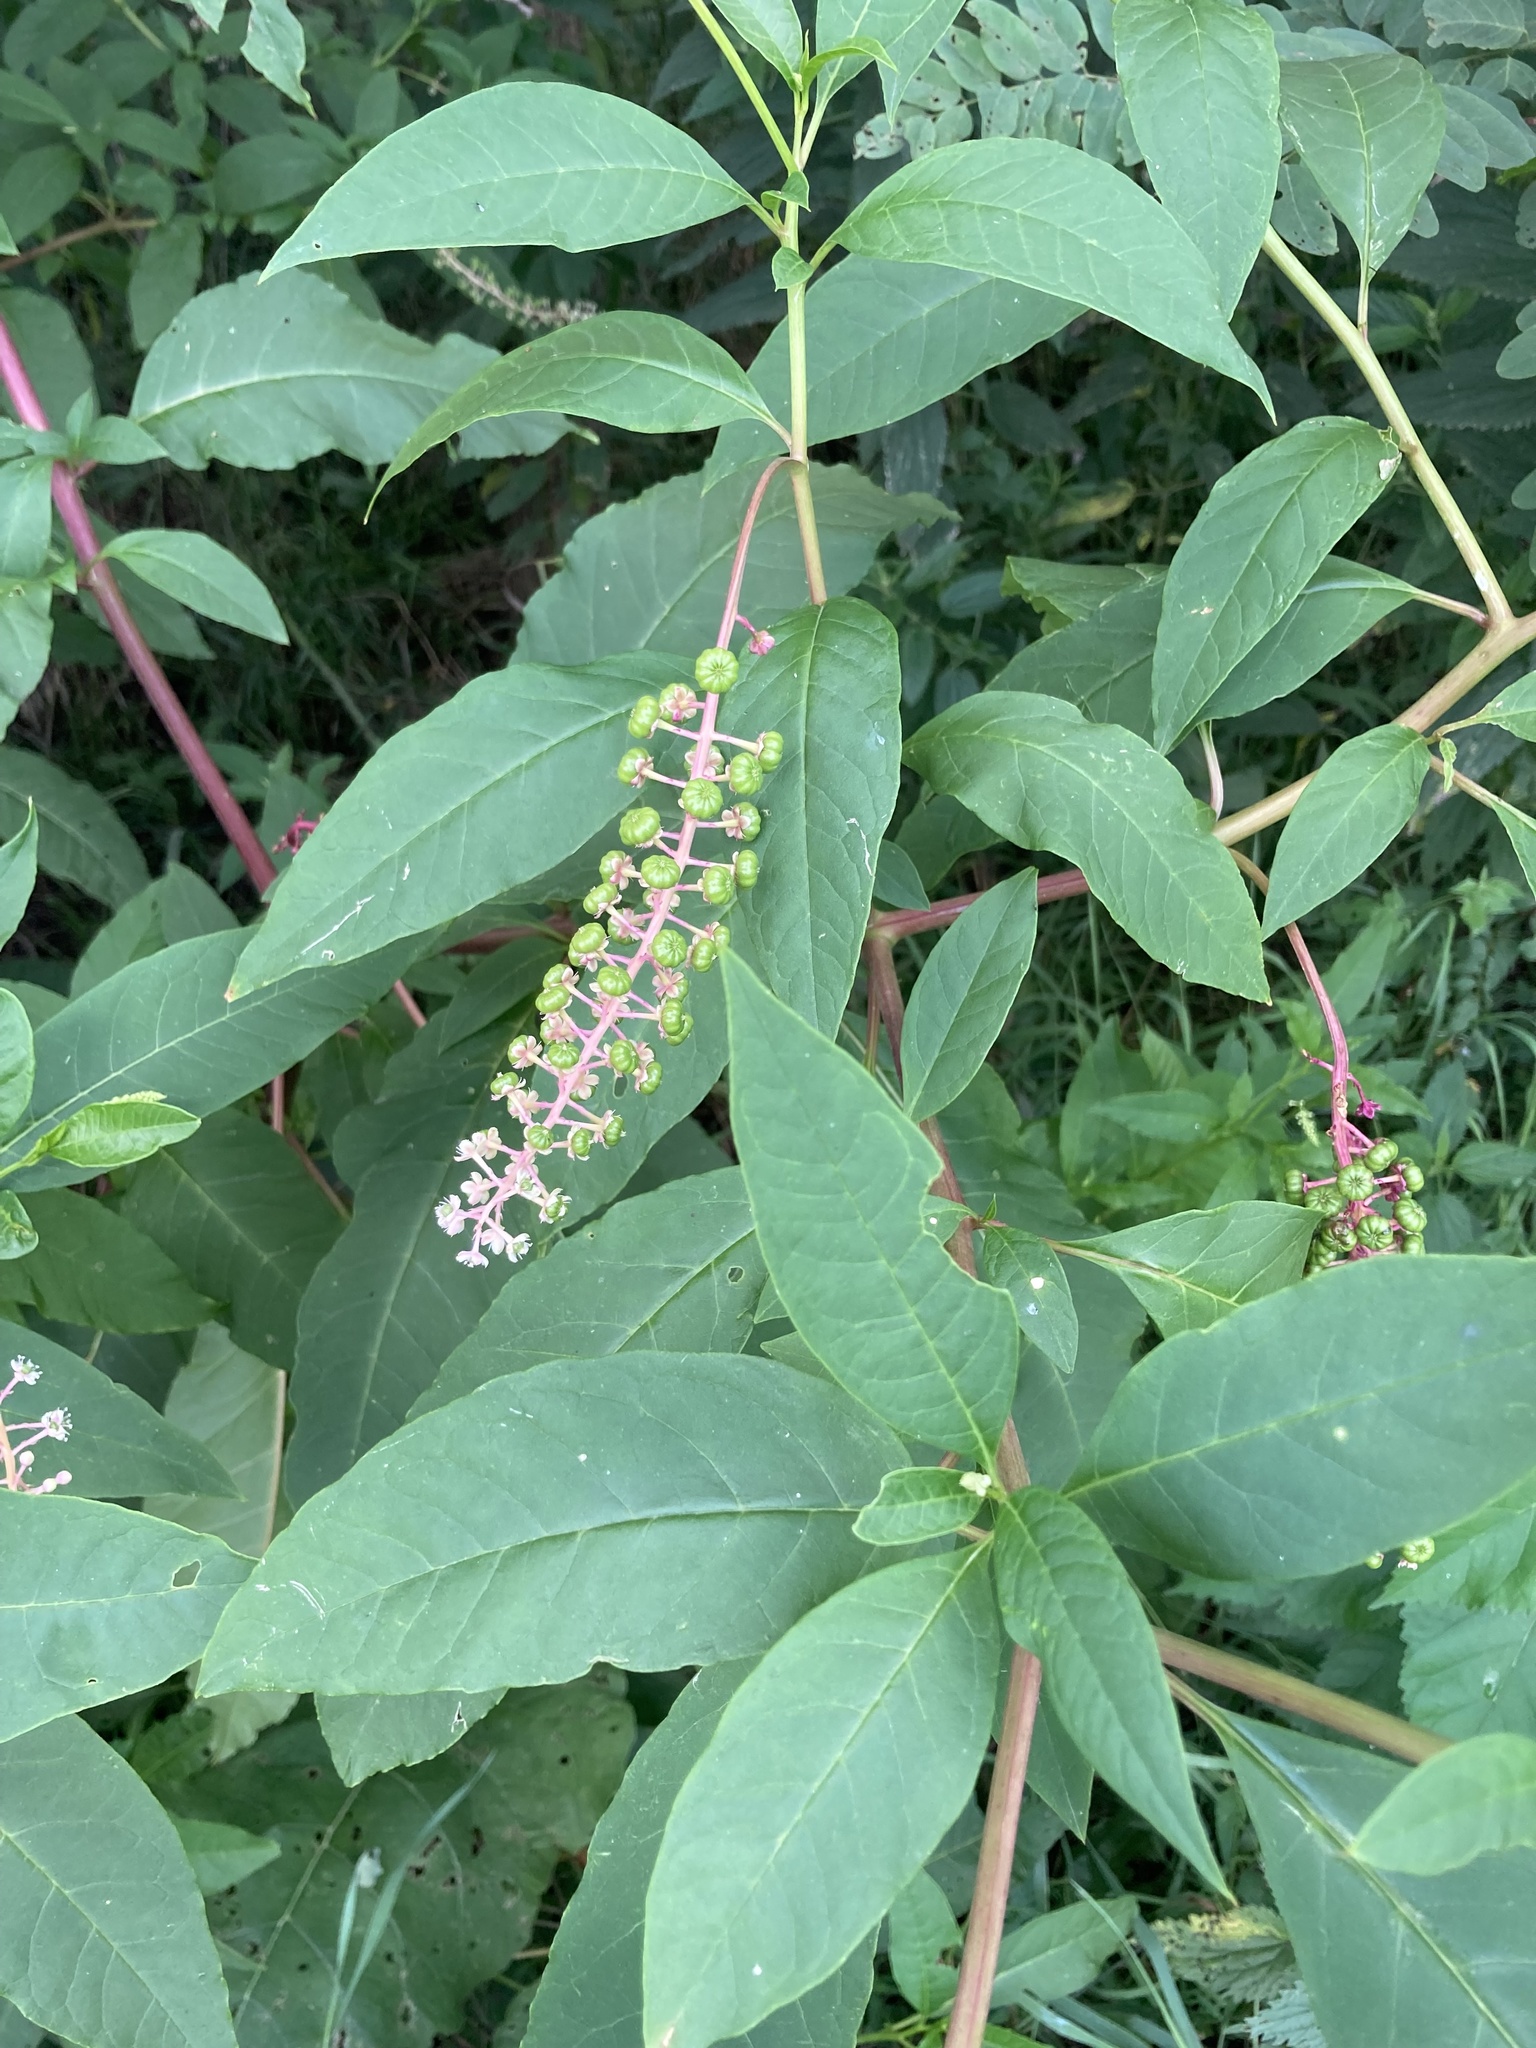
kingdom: Plantae
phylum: Tracheophyta
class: Magnoliopsida
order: Caryophyllales
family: Phytolaccaceae
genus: Phytolacca
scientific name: Phytolacca americana
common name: American pokeweed
